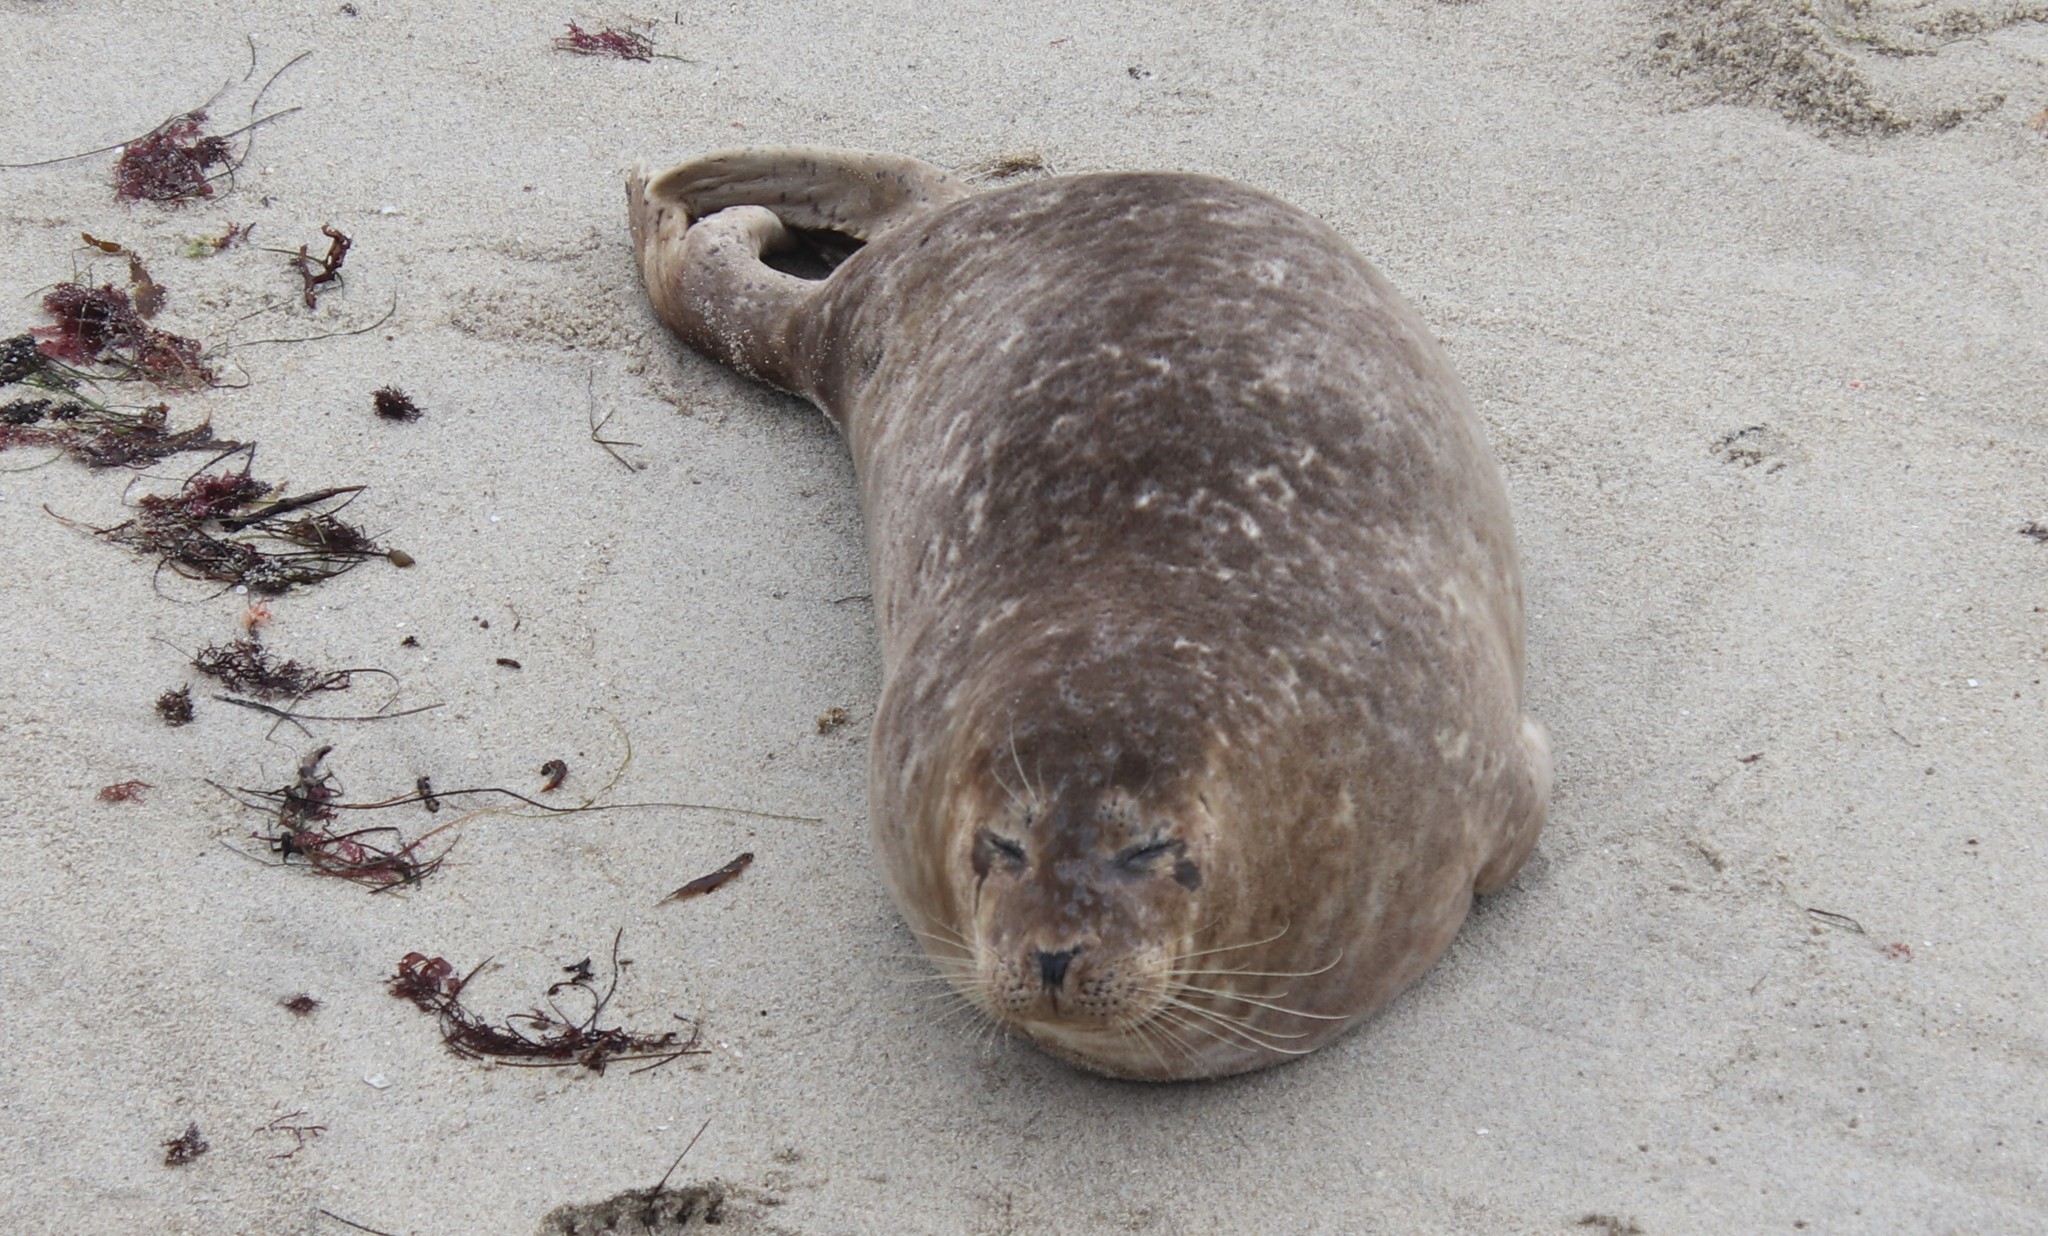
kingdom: Animalia
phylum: Chordata
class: Mammalia
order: Carnivora
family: Phocidae
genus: Phoca
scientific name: Phoca vitulina
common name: Harbor seal
